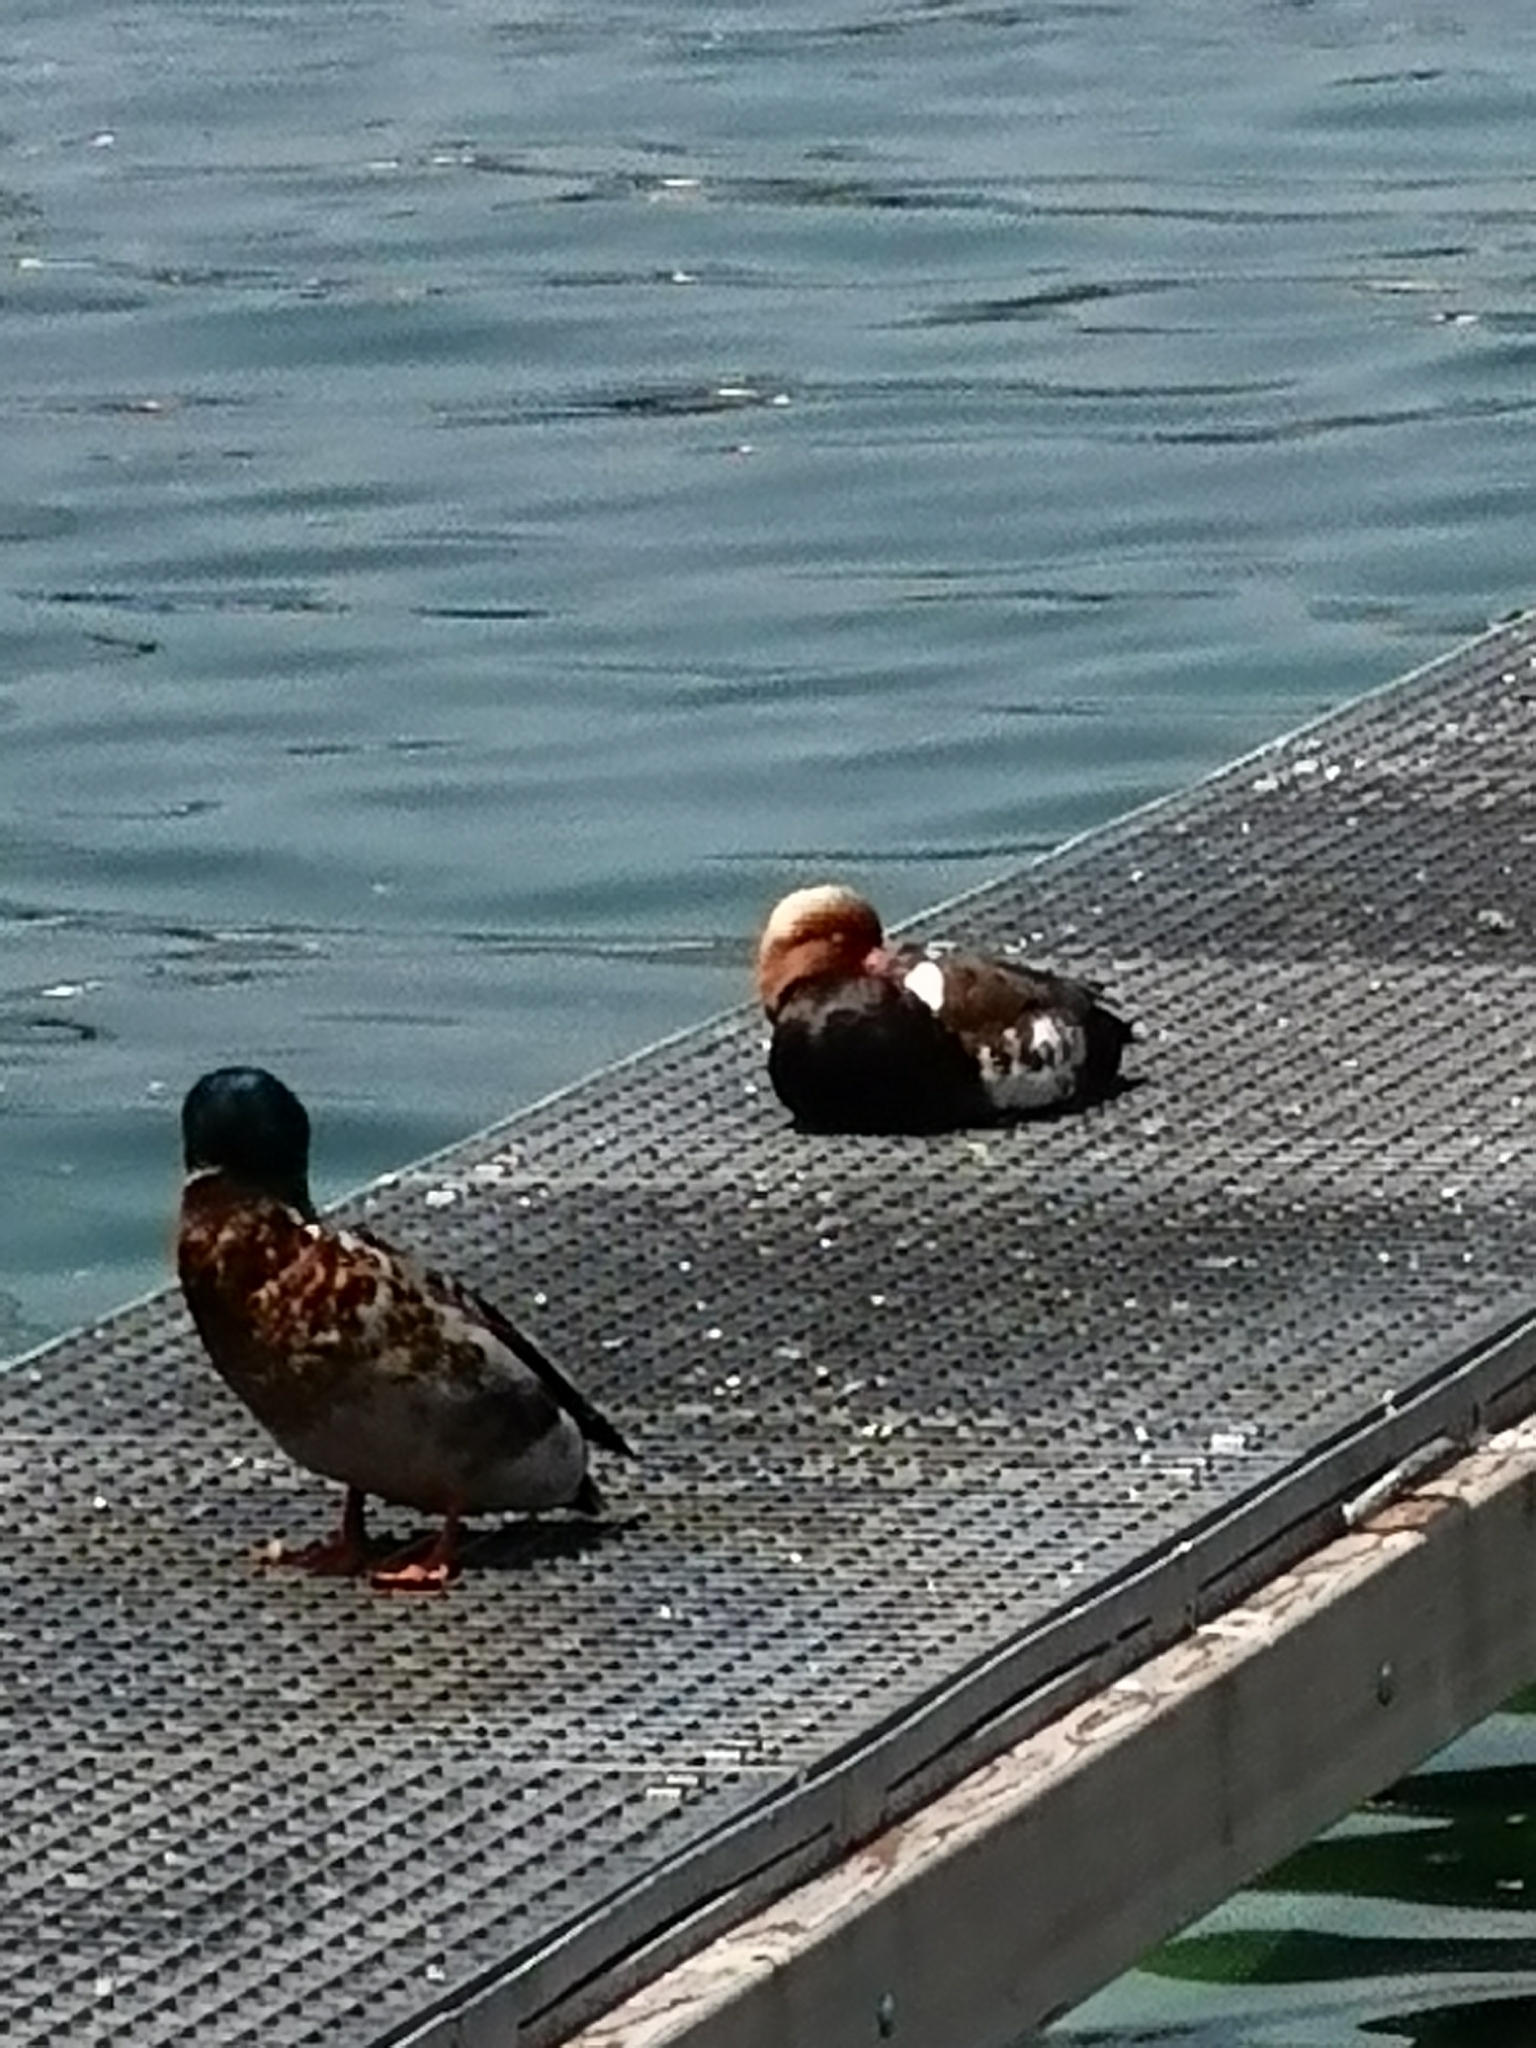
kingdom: Animalia
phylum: Chordata
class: Aves
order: Anseriformes
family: Anatidae
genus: Netta
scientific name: Netta rufina
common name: Red-crested pochard
